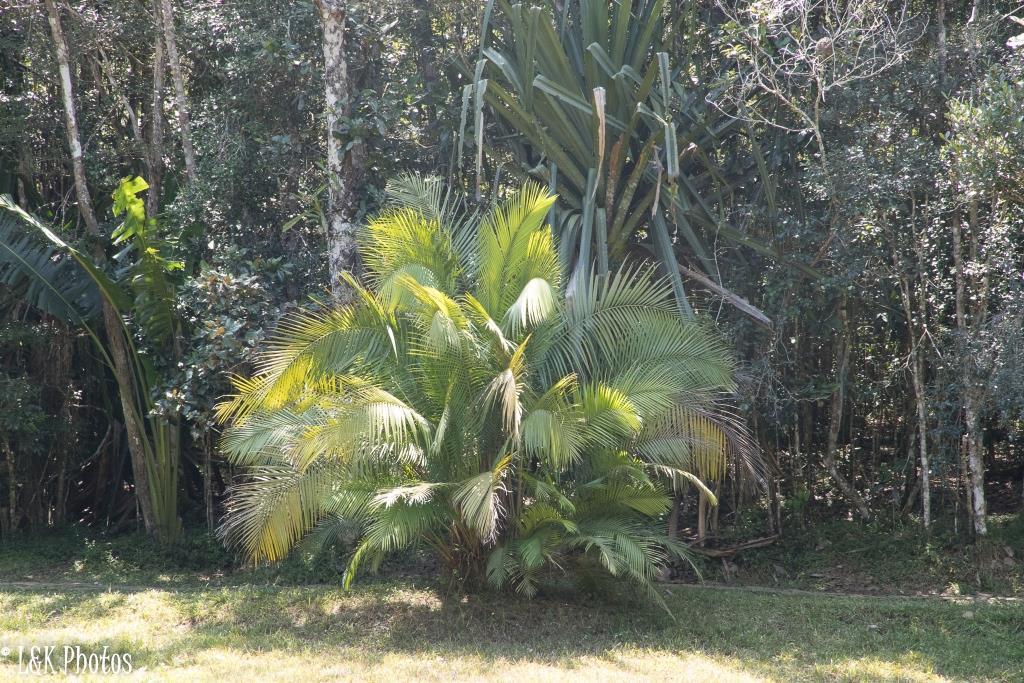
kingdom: Plantae
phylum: Tracheophyta
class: Liliopsida
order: Arecales
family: Arecaceae
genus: Dypsis
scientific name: Dypsis fibrosa
